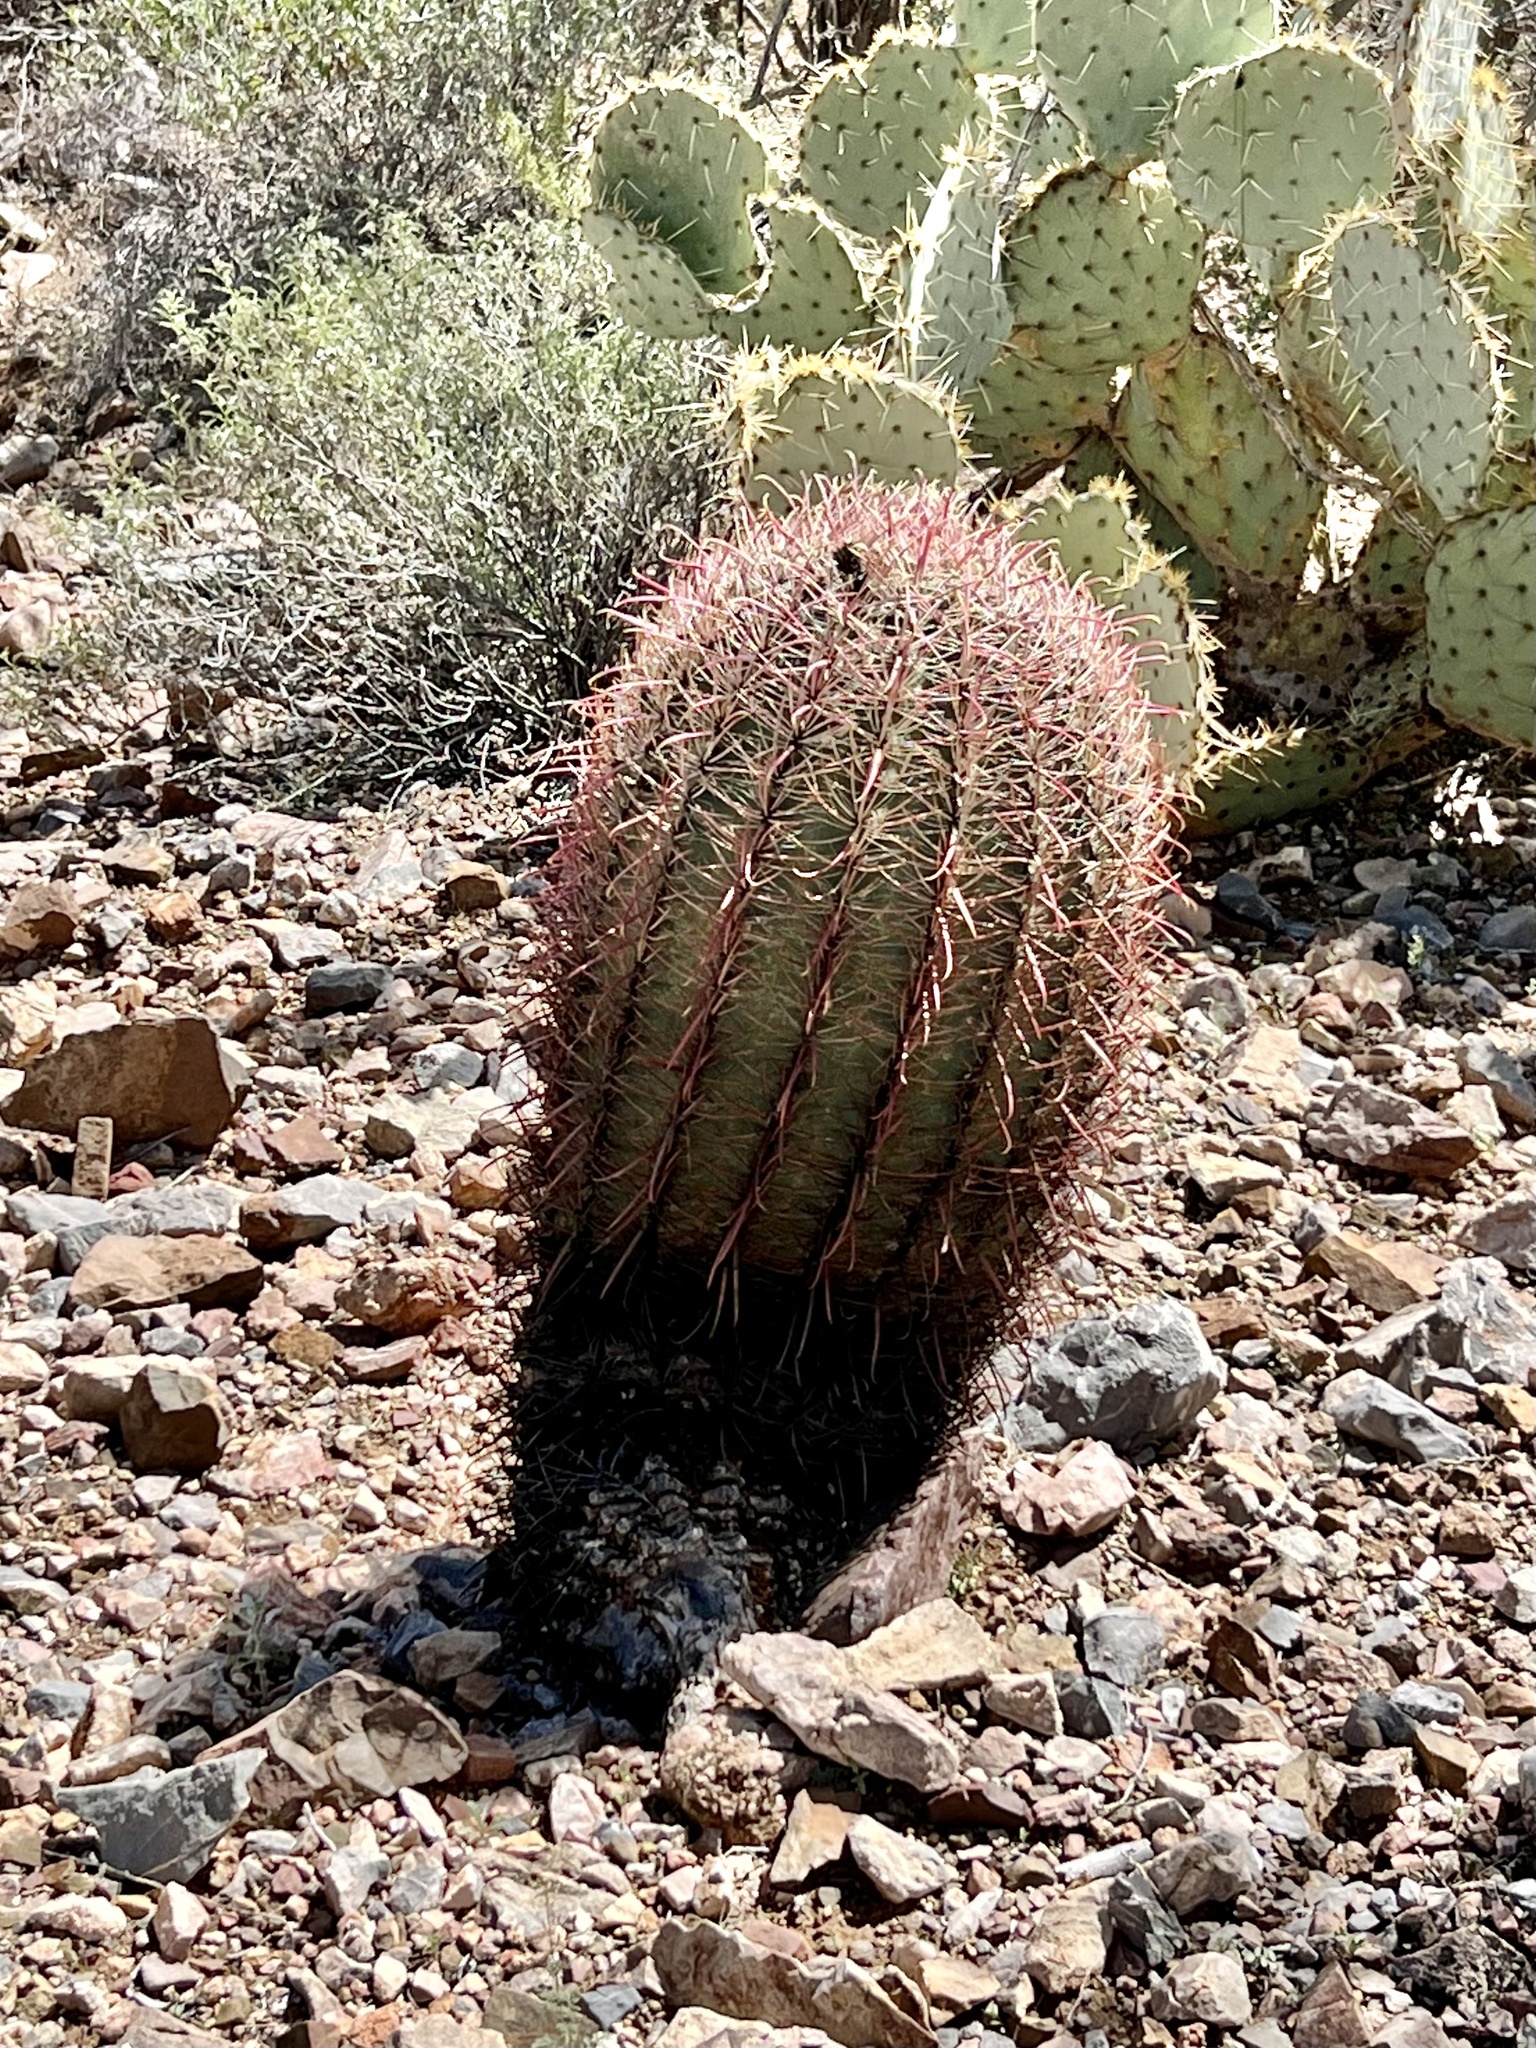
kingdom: Plantae
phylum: Tracheophyta
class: Magnoliopsida
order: Caryophyllales
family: Cactaceae
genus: Ferocactus
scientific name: Ferocactus cylindraceus
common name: California barrel cactus
